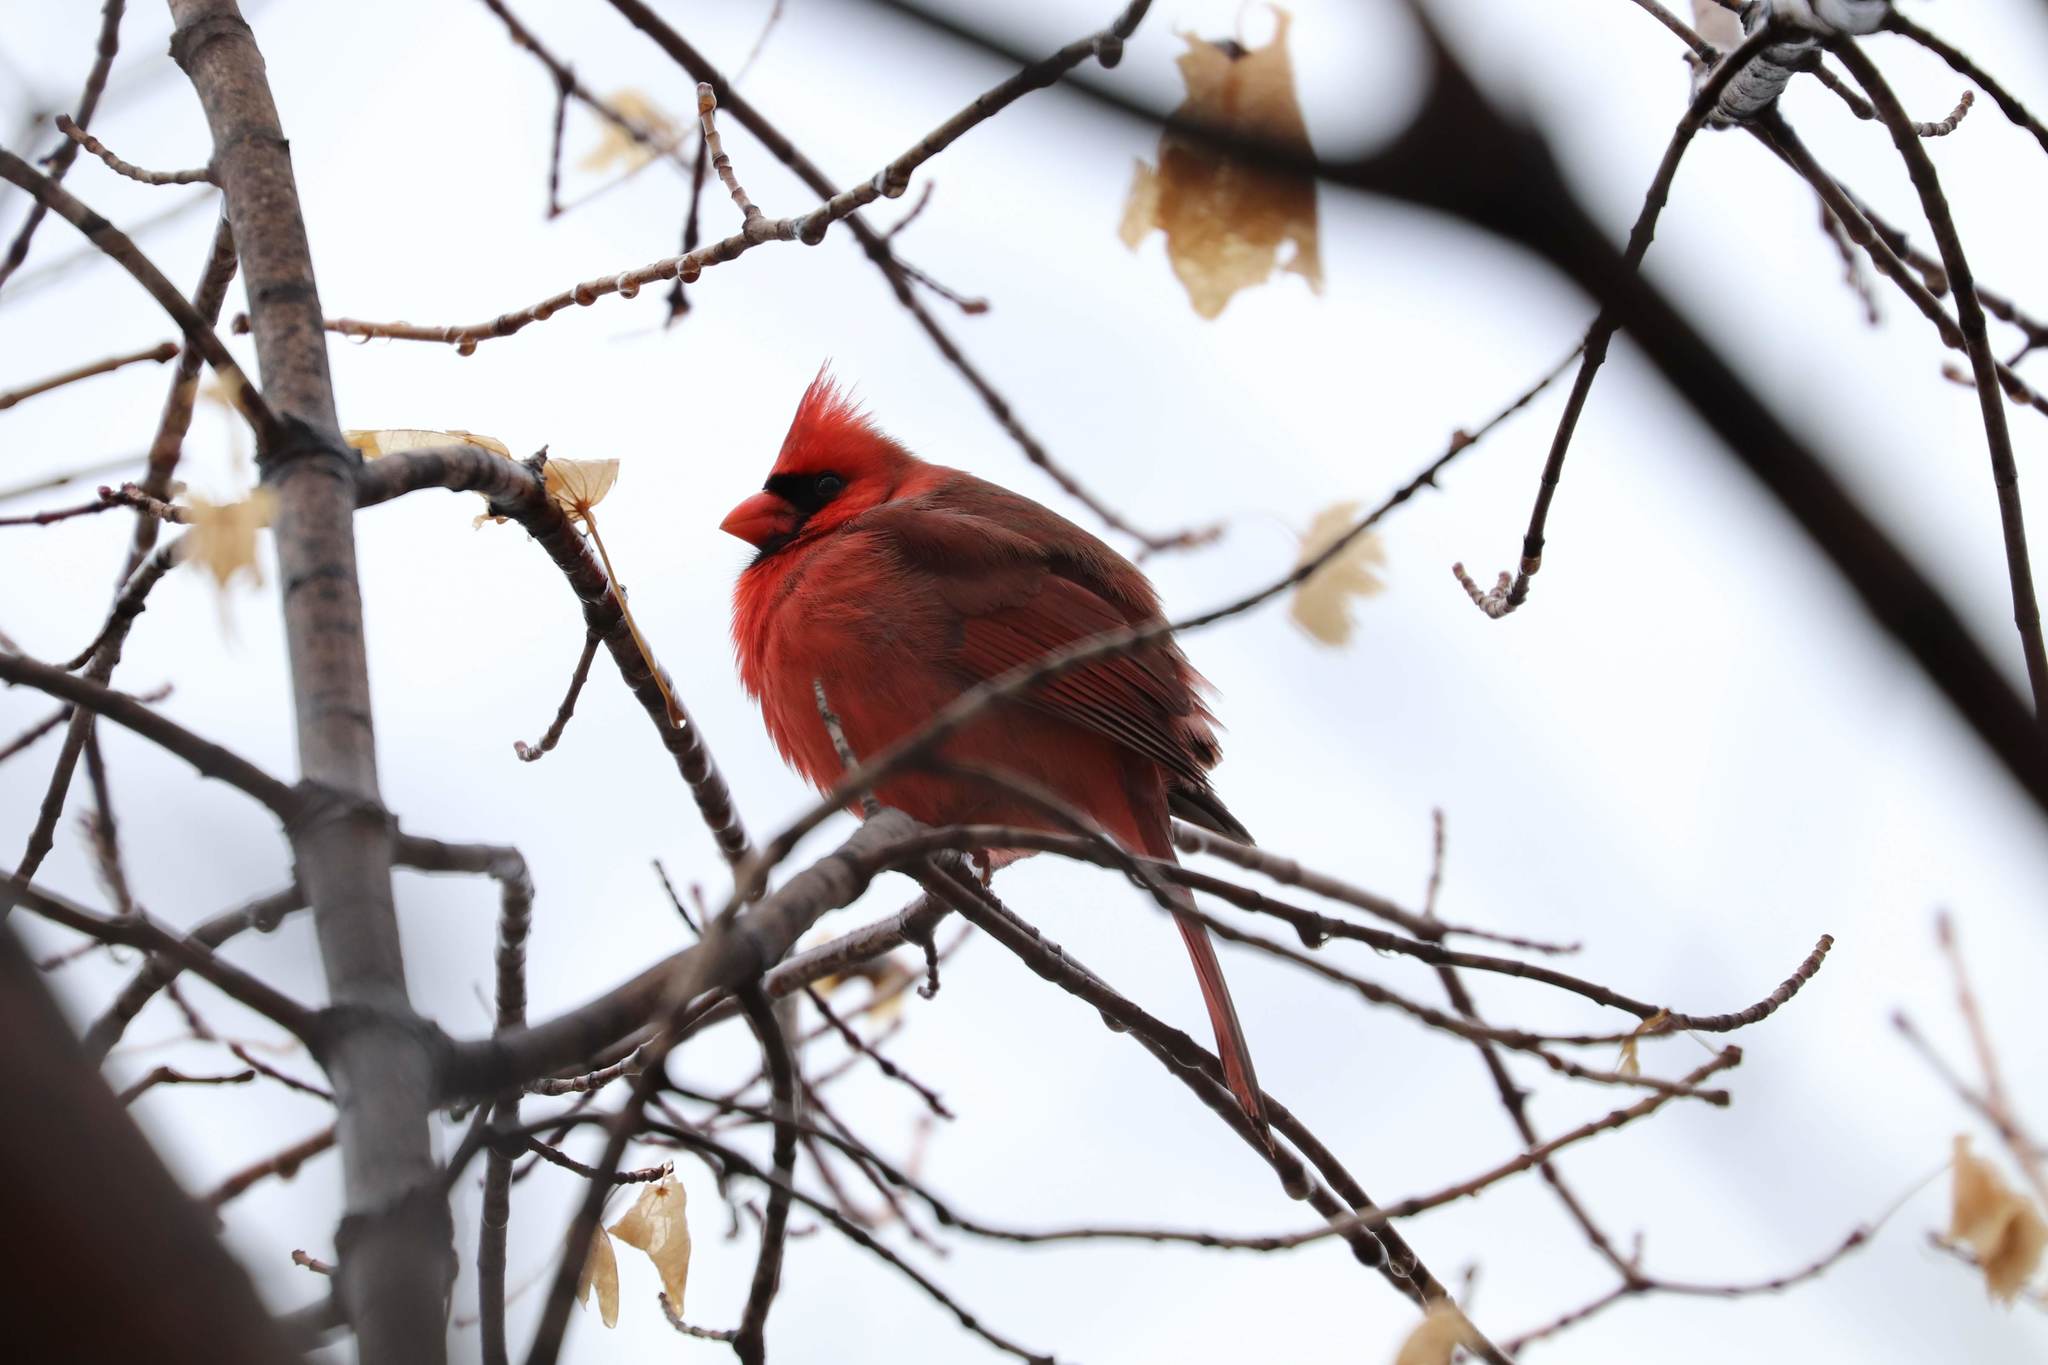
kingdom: Animalia
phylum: Chordata
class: Aves
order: Passeriformes
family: Cardinalidae
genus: Cardinalis
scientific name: Cardinalis cardinalis
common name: Northern cardinal
